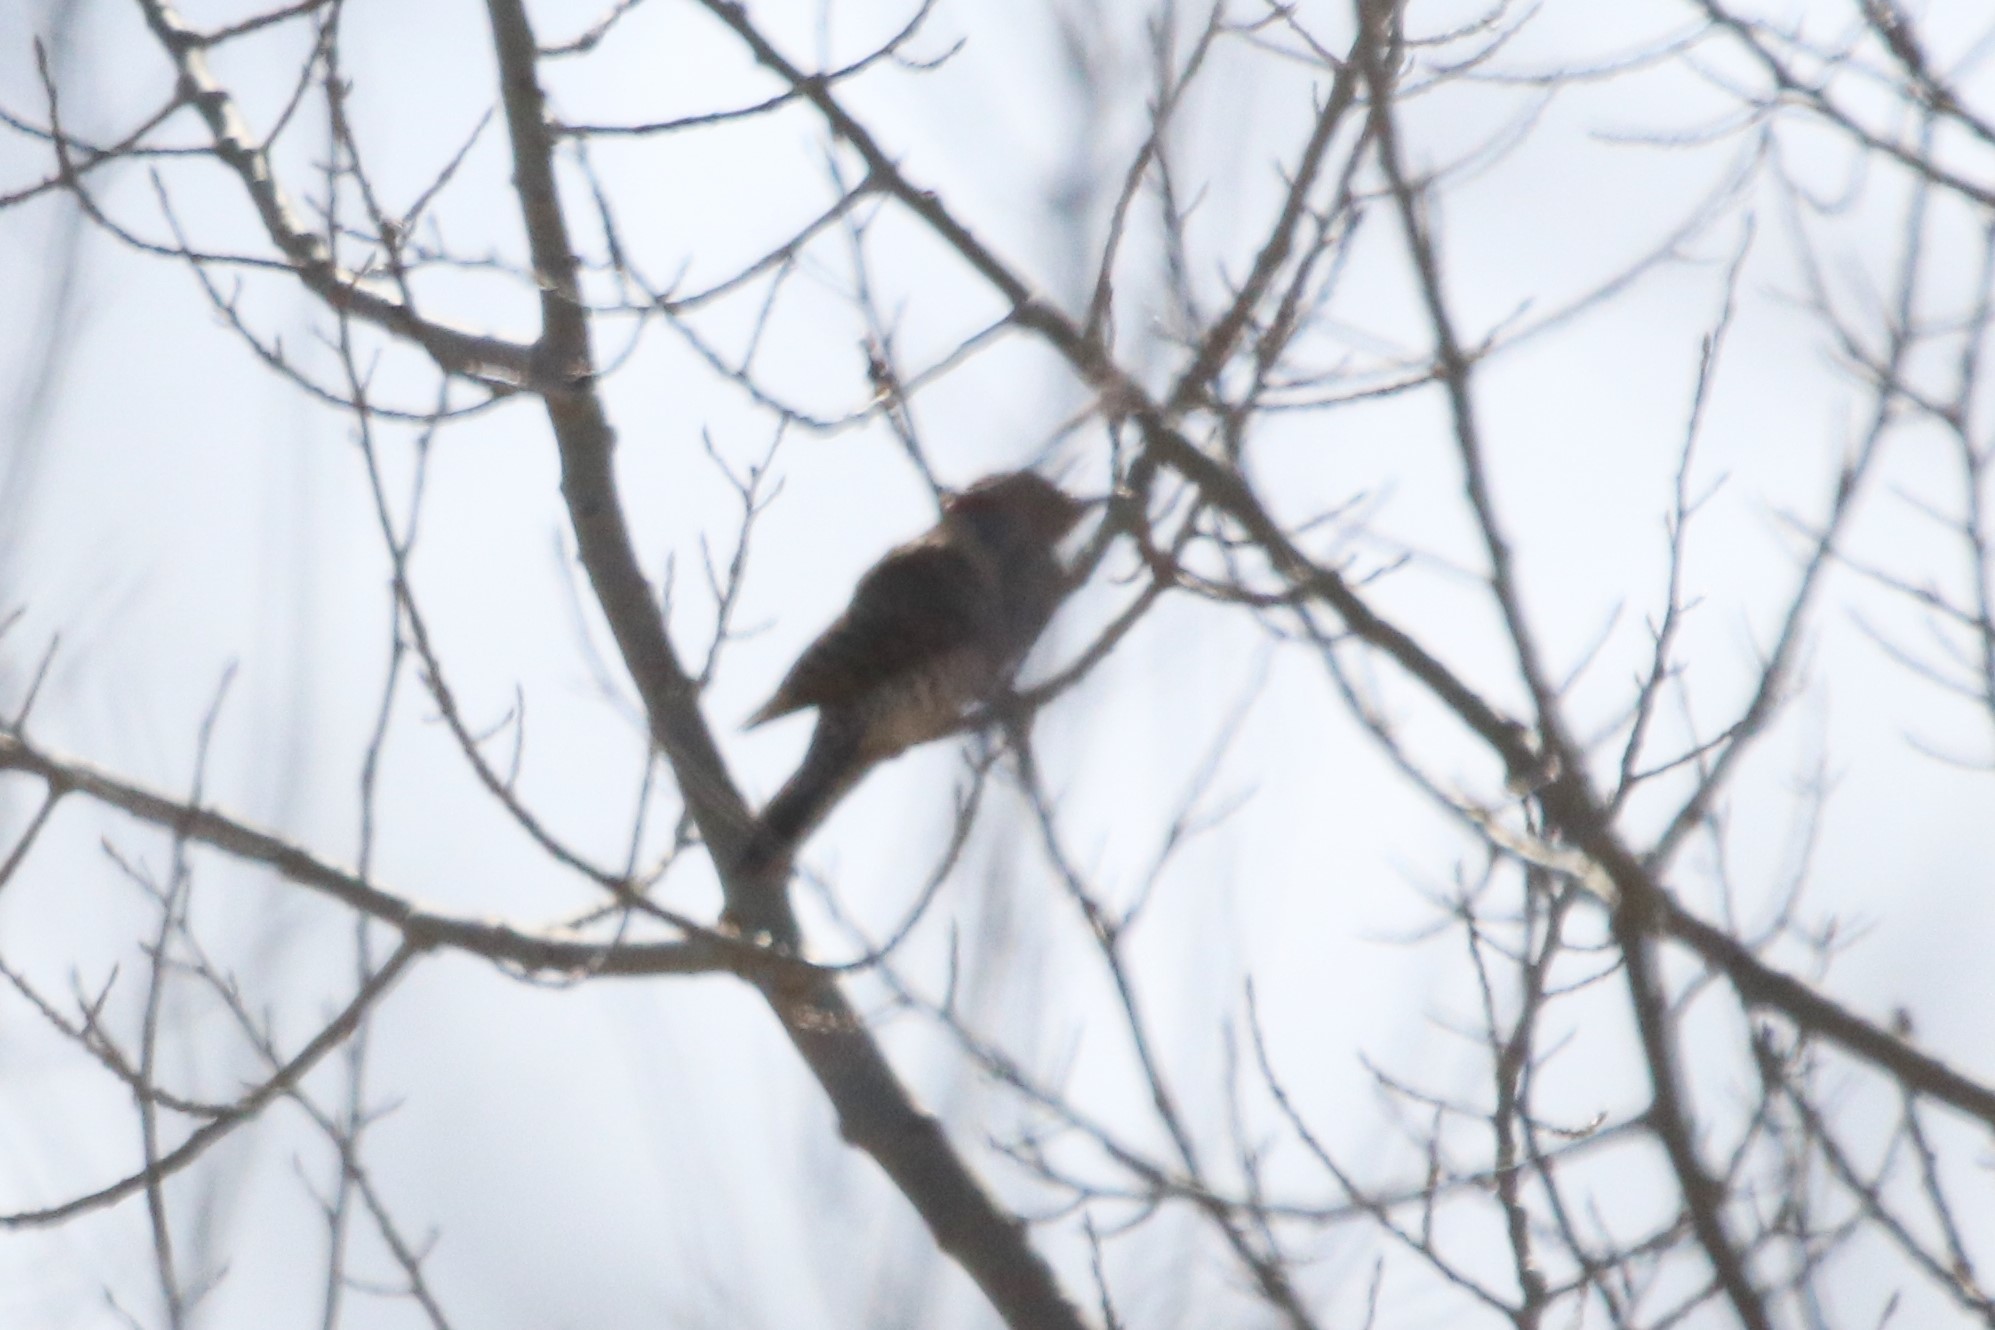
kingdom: Animalia
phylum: Chordata
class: Aves
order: Piciformes
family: Picidae
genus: Colaptes
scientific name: Colaptes auratus
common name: Northern flicker
